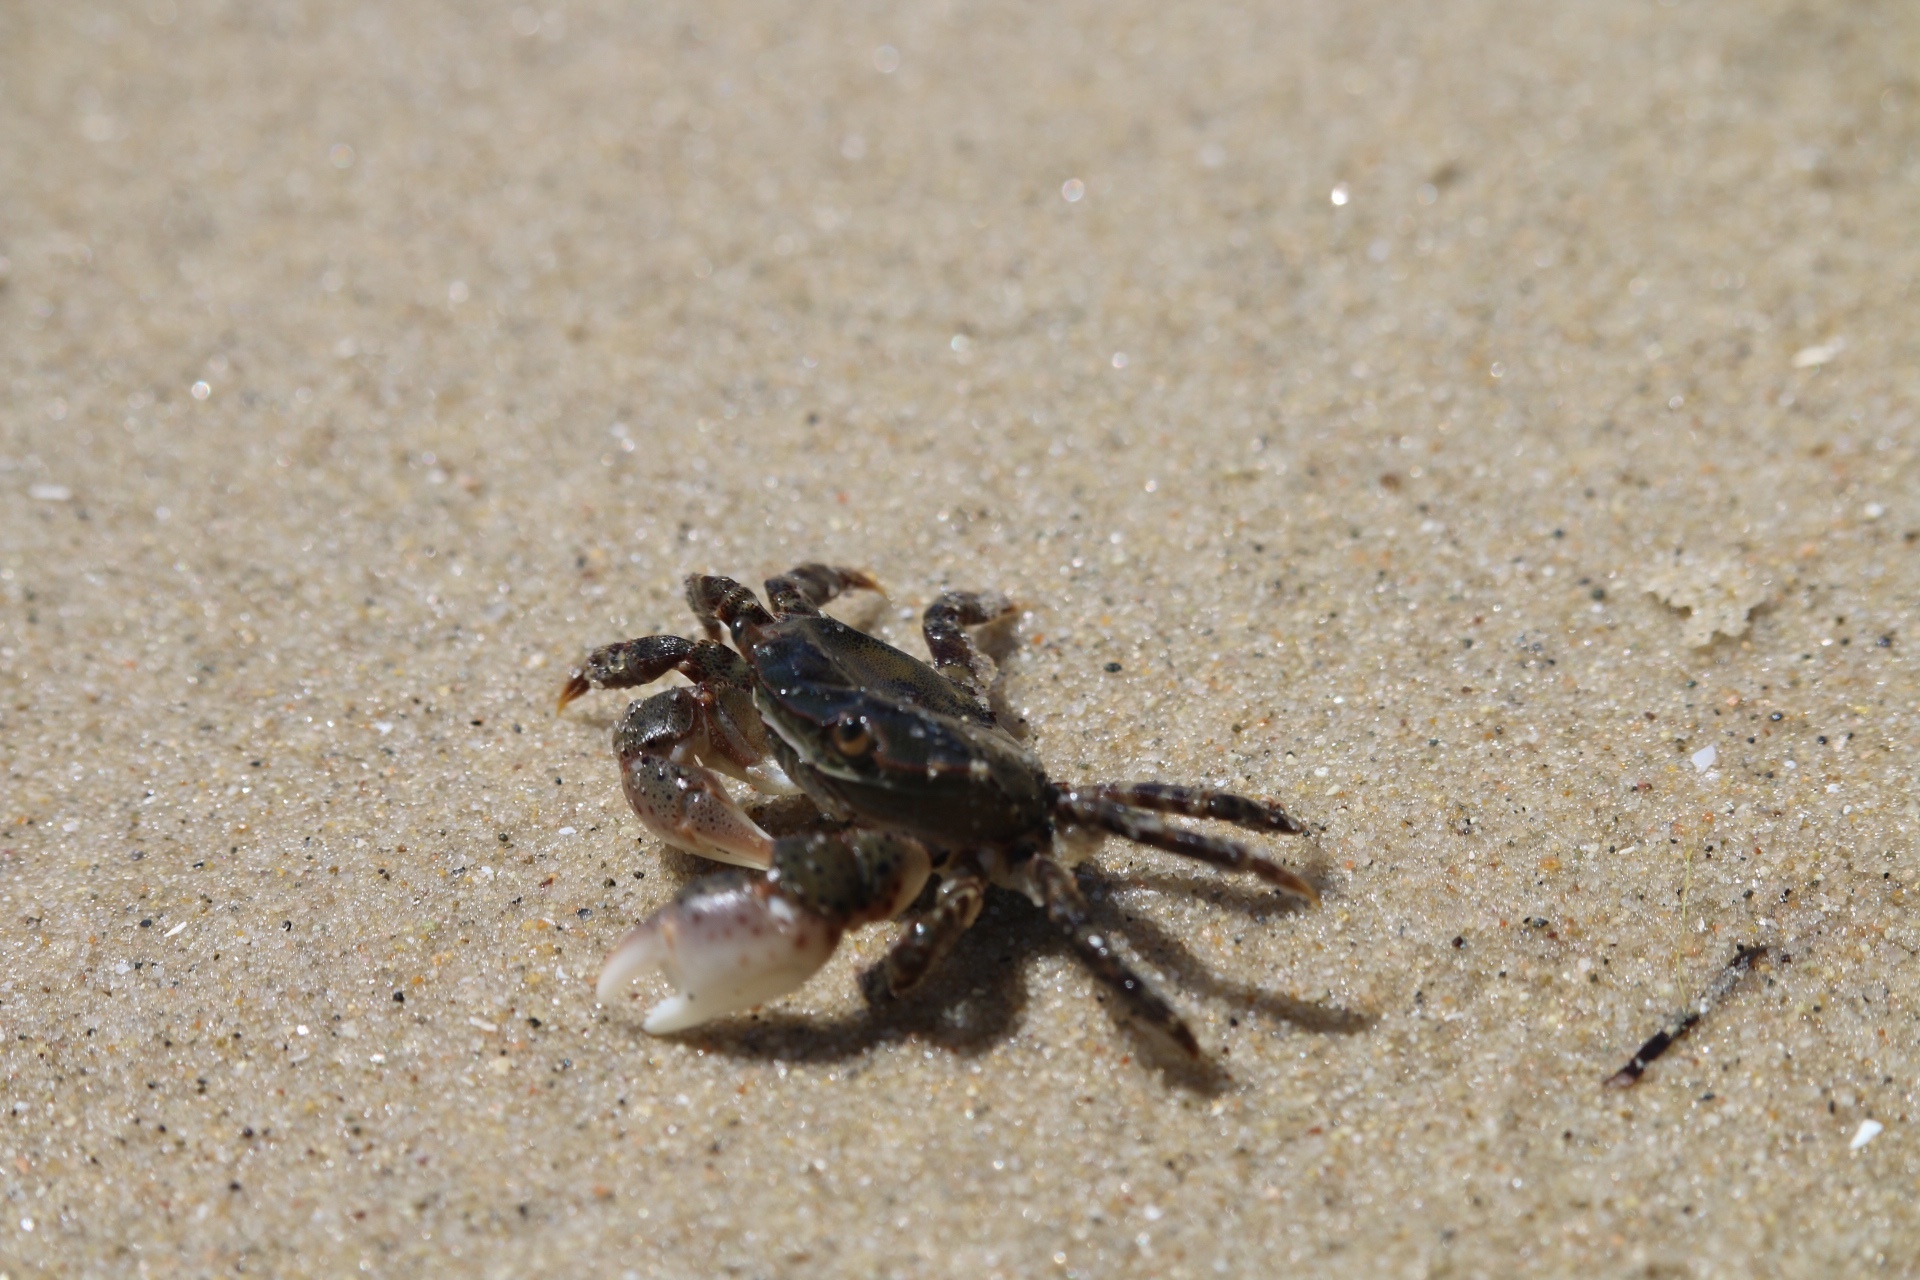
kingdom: Animalia
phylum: Arthropoda
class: Malacostraca
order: Decapoda
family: Varunidae
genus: Hemigrapsus
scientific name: Hemigrapsus sanguineus
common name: Asian shore crab
